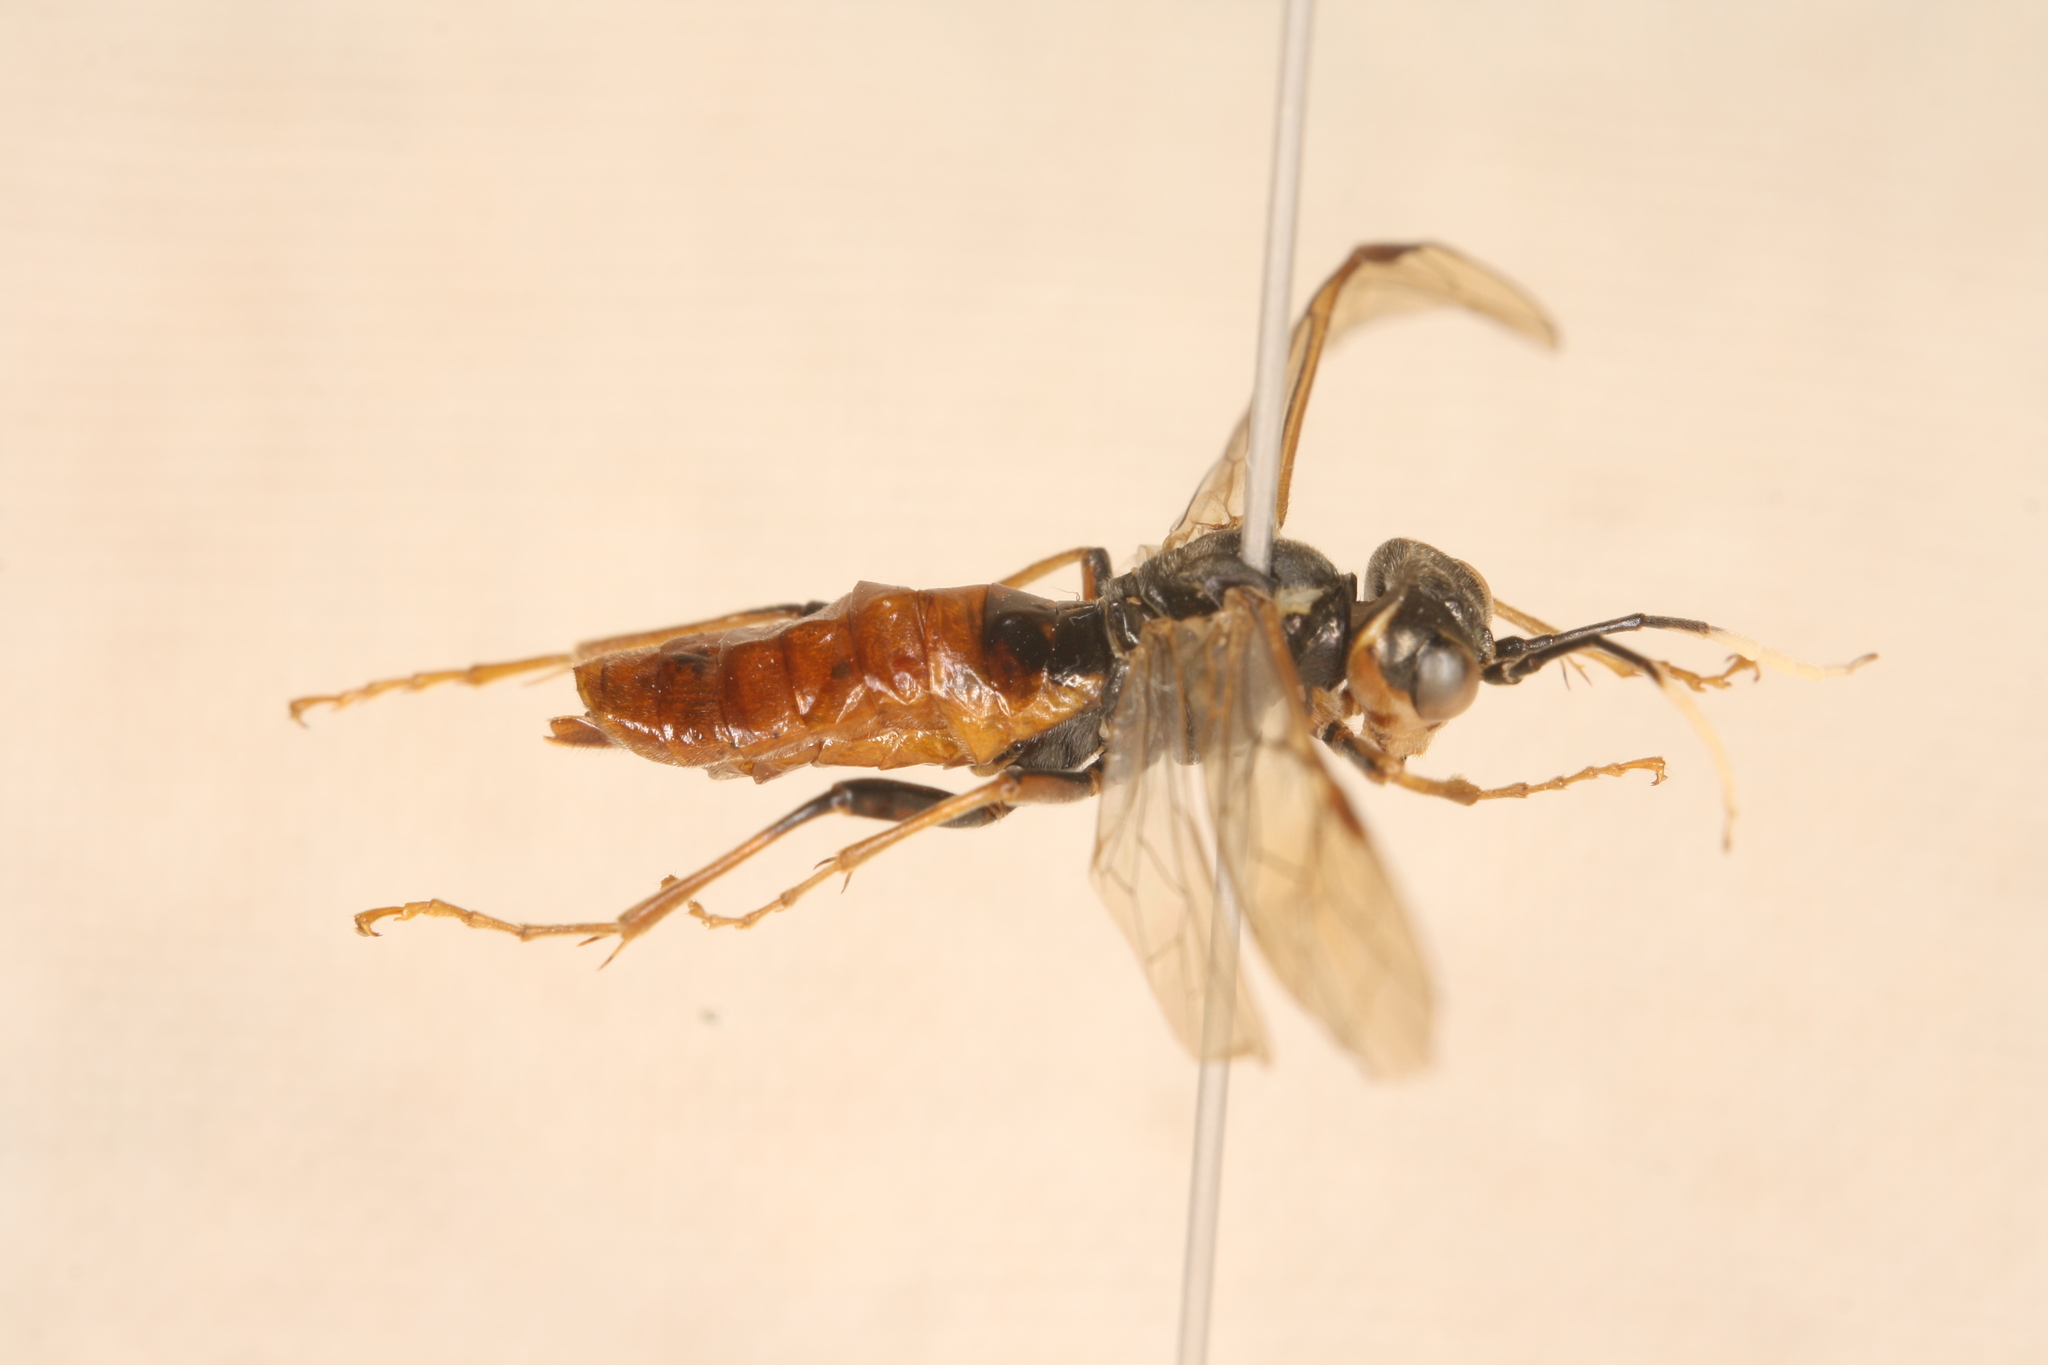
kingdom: Animalia
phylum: Arthropoda
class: Insecta
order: Hymenoptera
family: Tenthredinidae
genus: Tenthredo
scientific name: Tenthredo ferruginea
